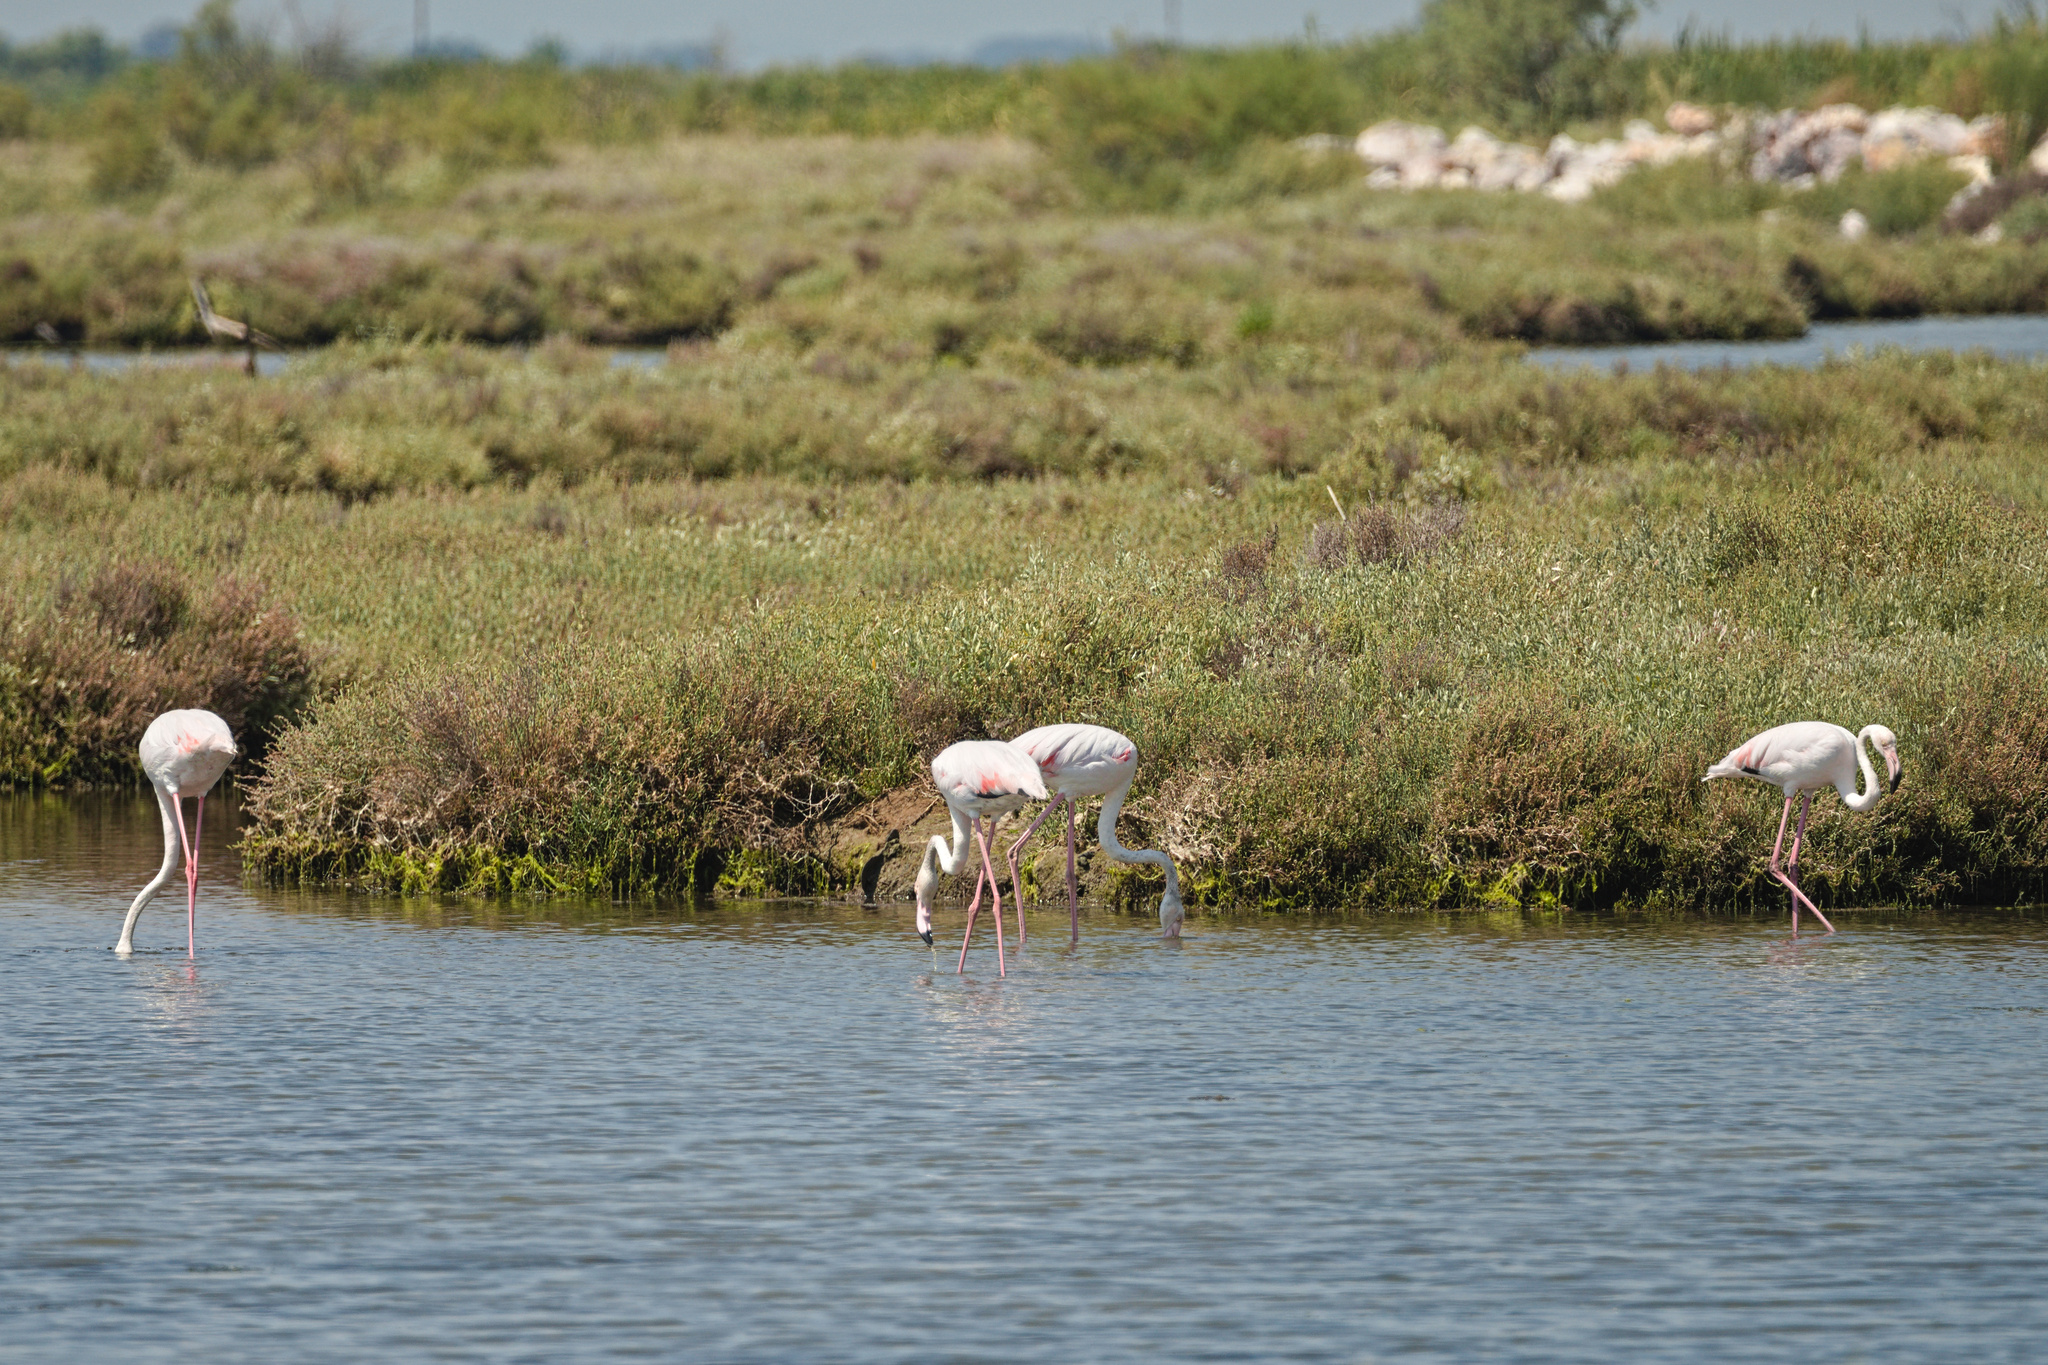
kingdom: Animalia
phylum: Chordata
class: Aves
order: Phoenicopteriformes
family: Phoenicopteridae
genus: Phoenicopterus
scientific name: Phoenicopterus roseus
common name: Greater flamingo
